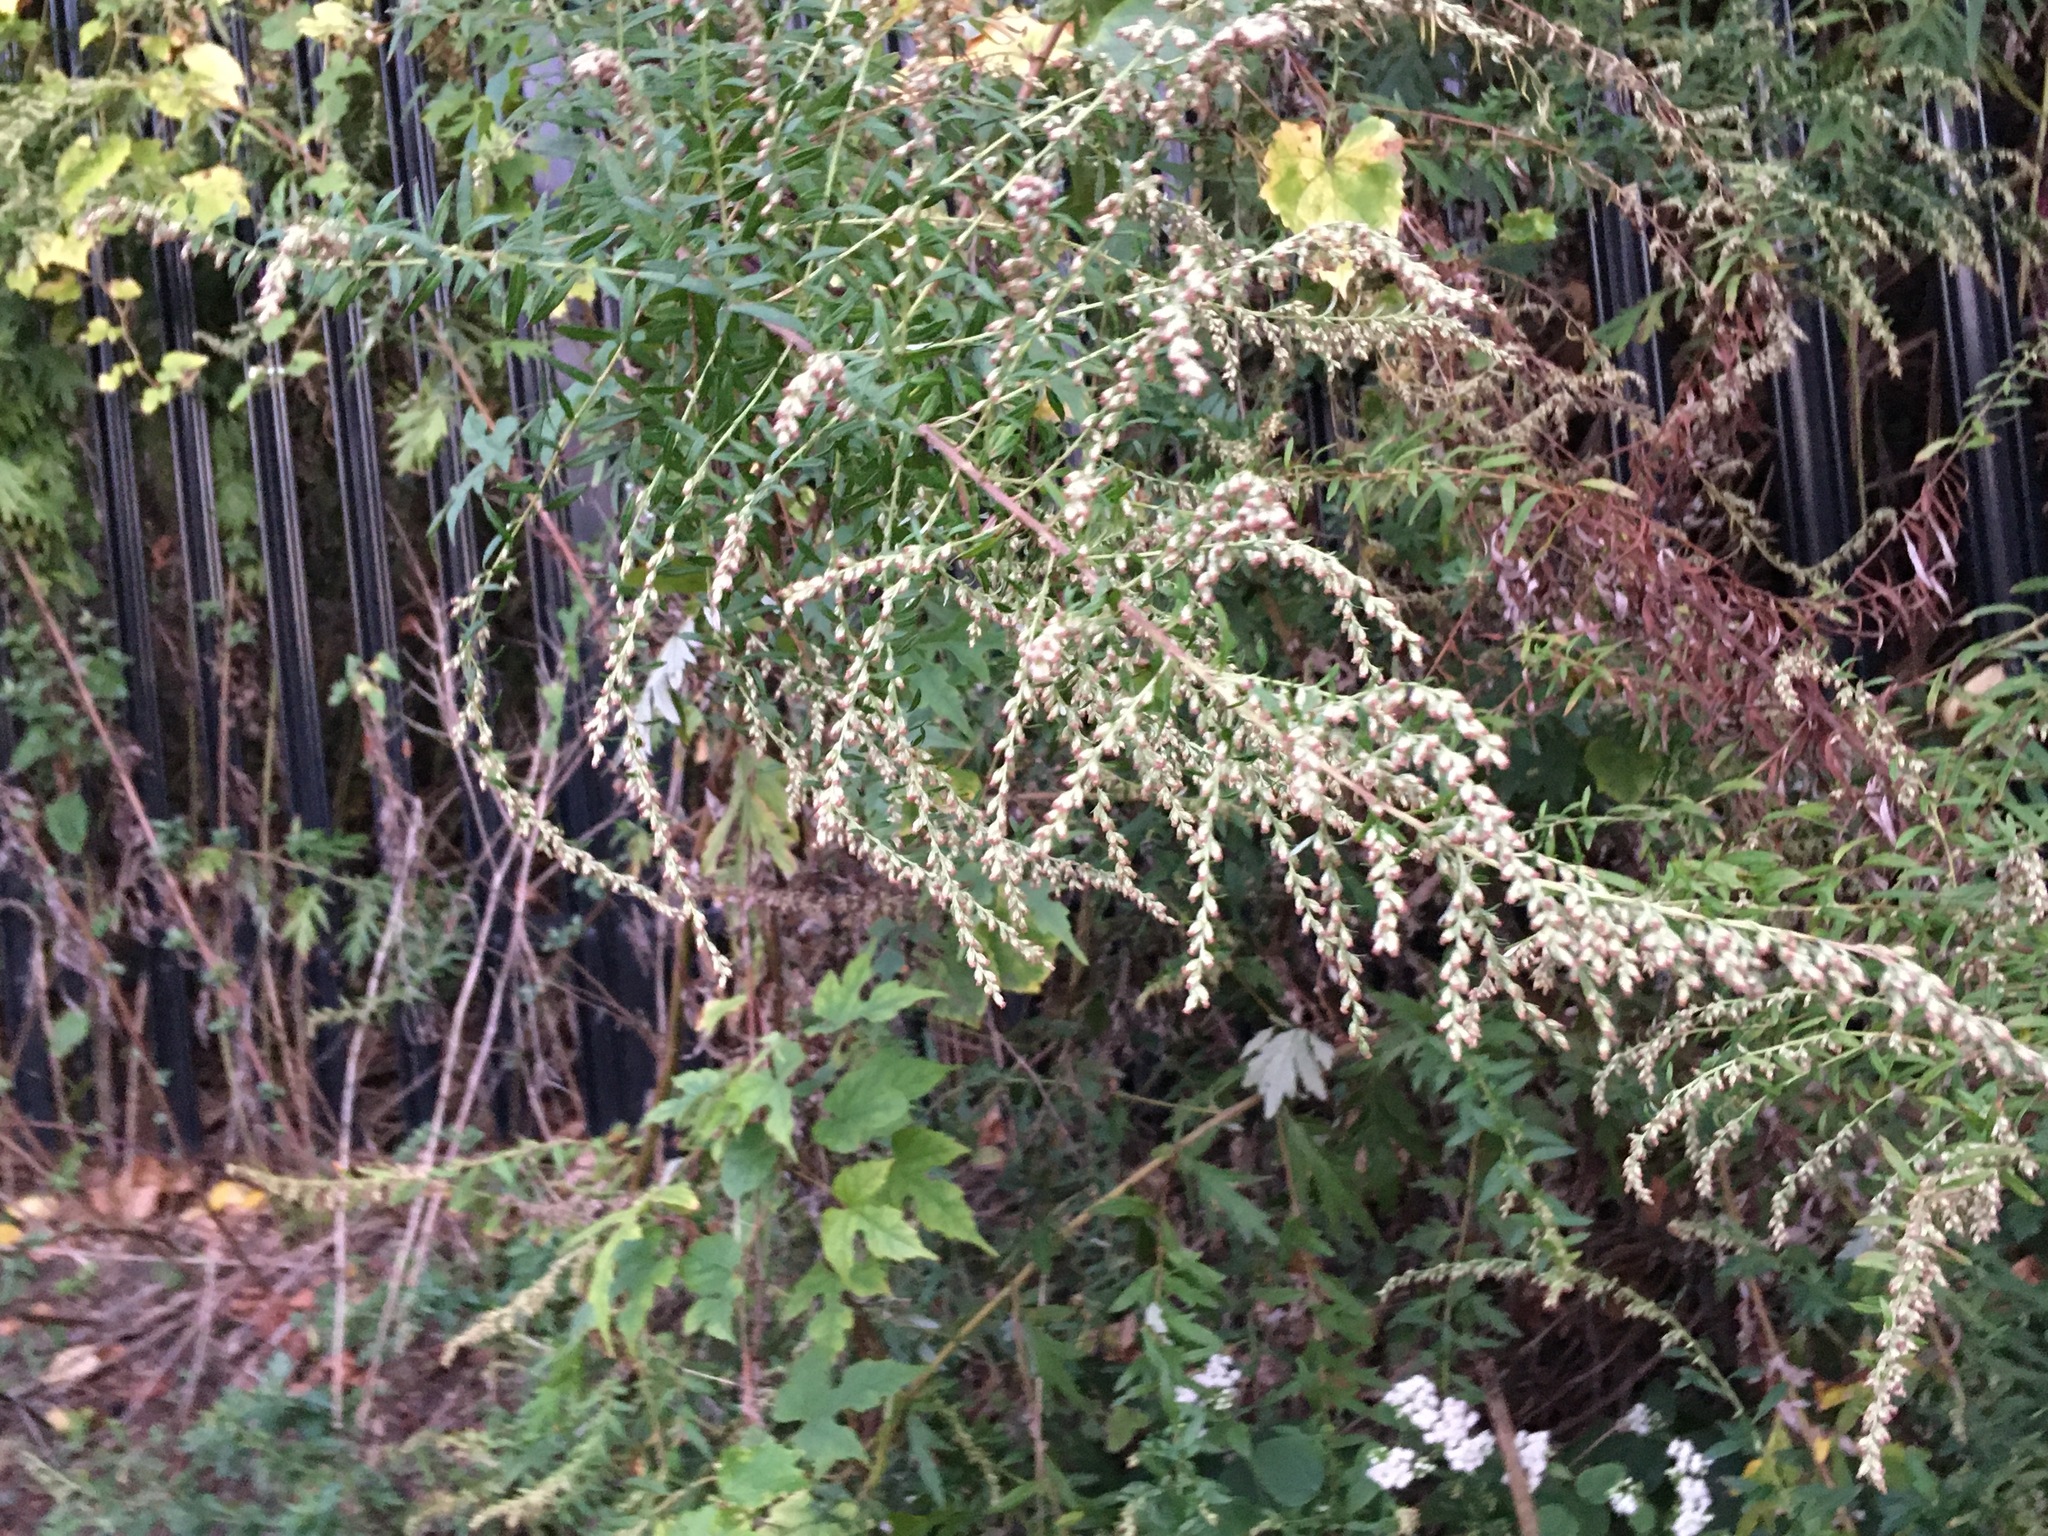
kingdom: Plantae
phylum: Tracheophyta
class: Magnoliopsida
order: Asterales
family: Asteraceae
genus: Artemisia
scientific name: Artemisia vulgaris
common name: Mugwort
